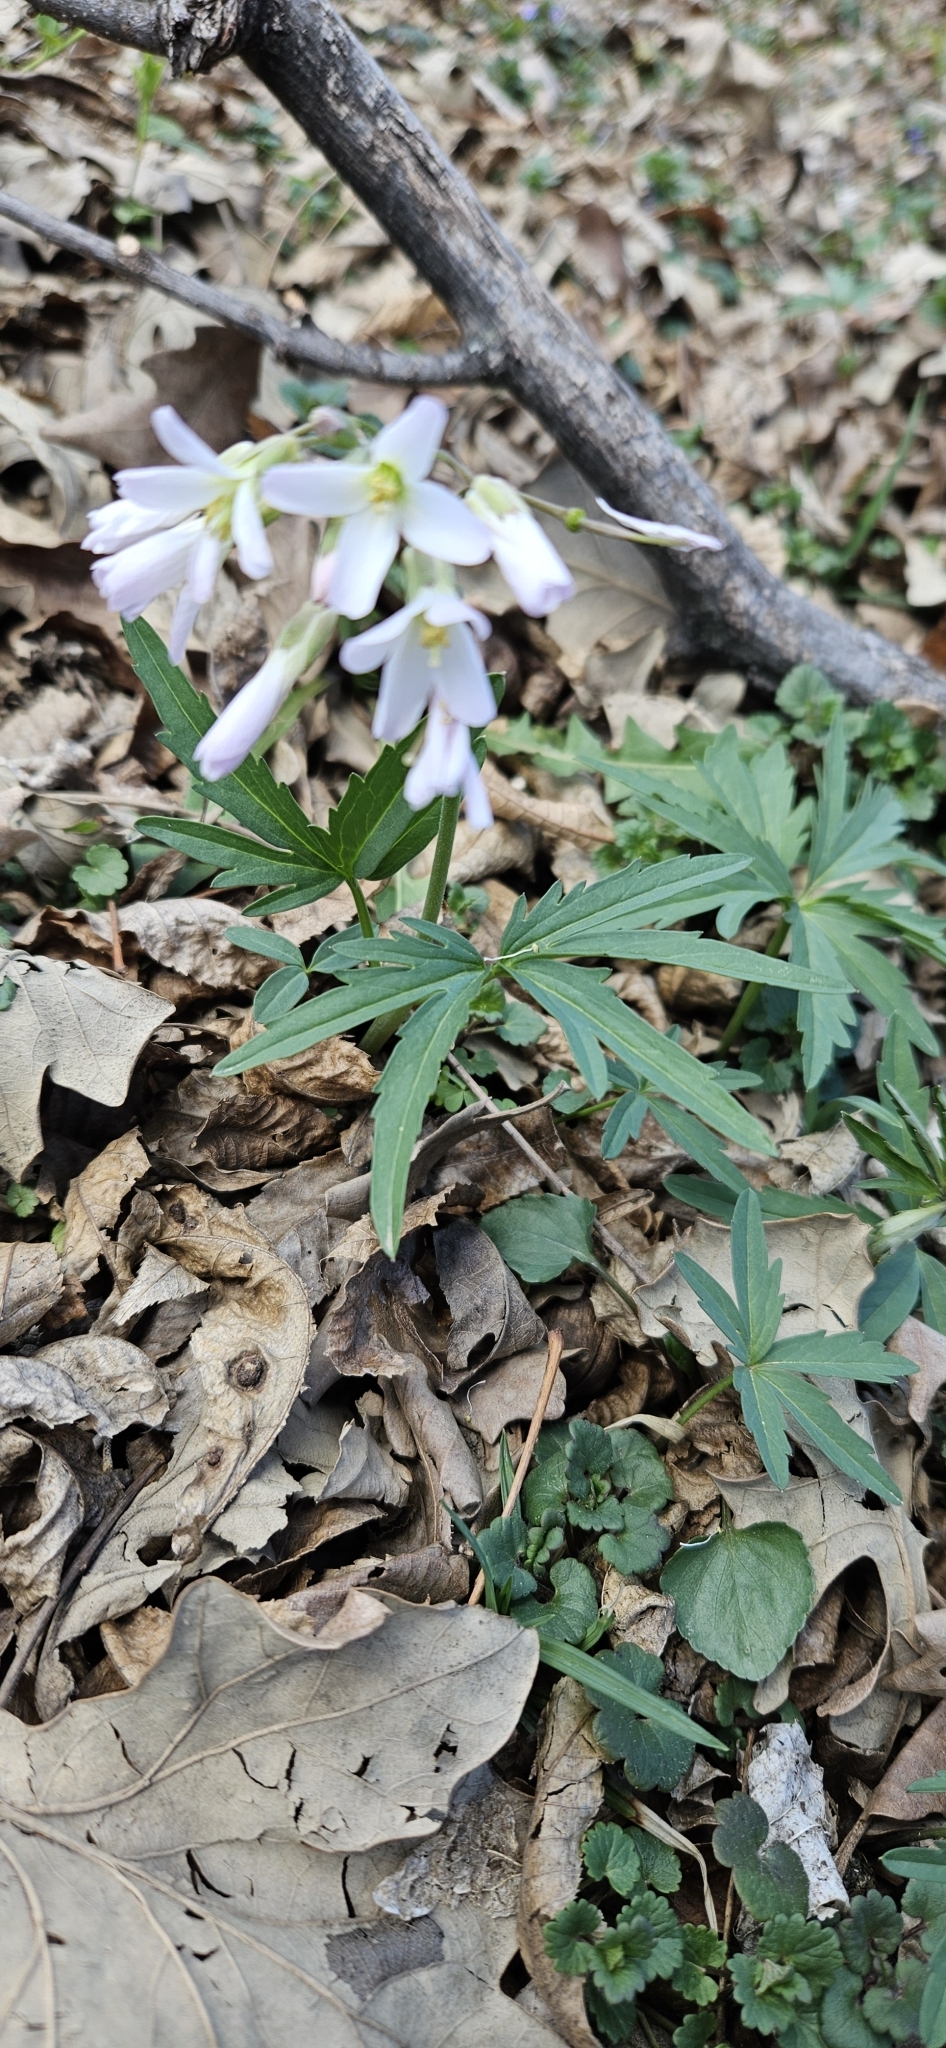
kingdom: Plantae
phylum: Tracheophyta
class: Magnoliopsida
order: Brassicales
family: Brassicaceae
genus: Cardamine
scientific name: Cardamine concatenata
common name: Cut-leaf toothcup
